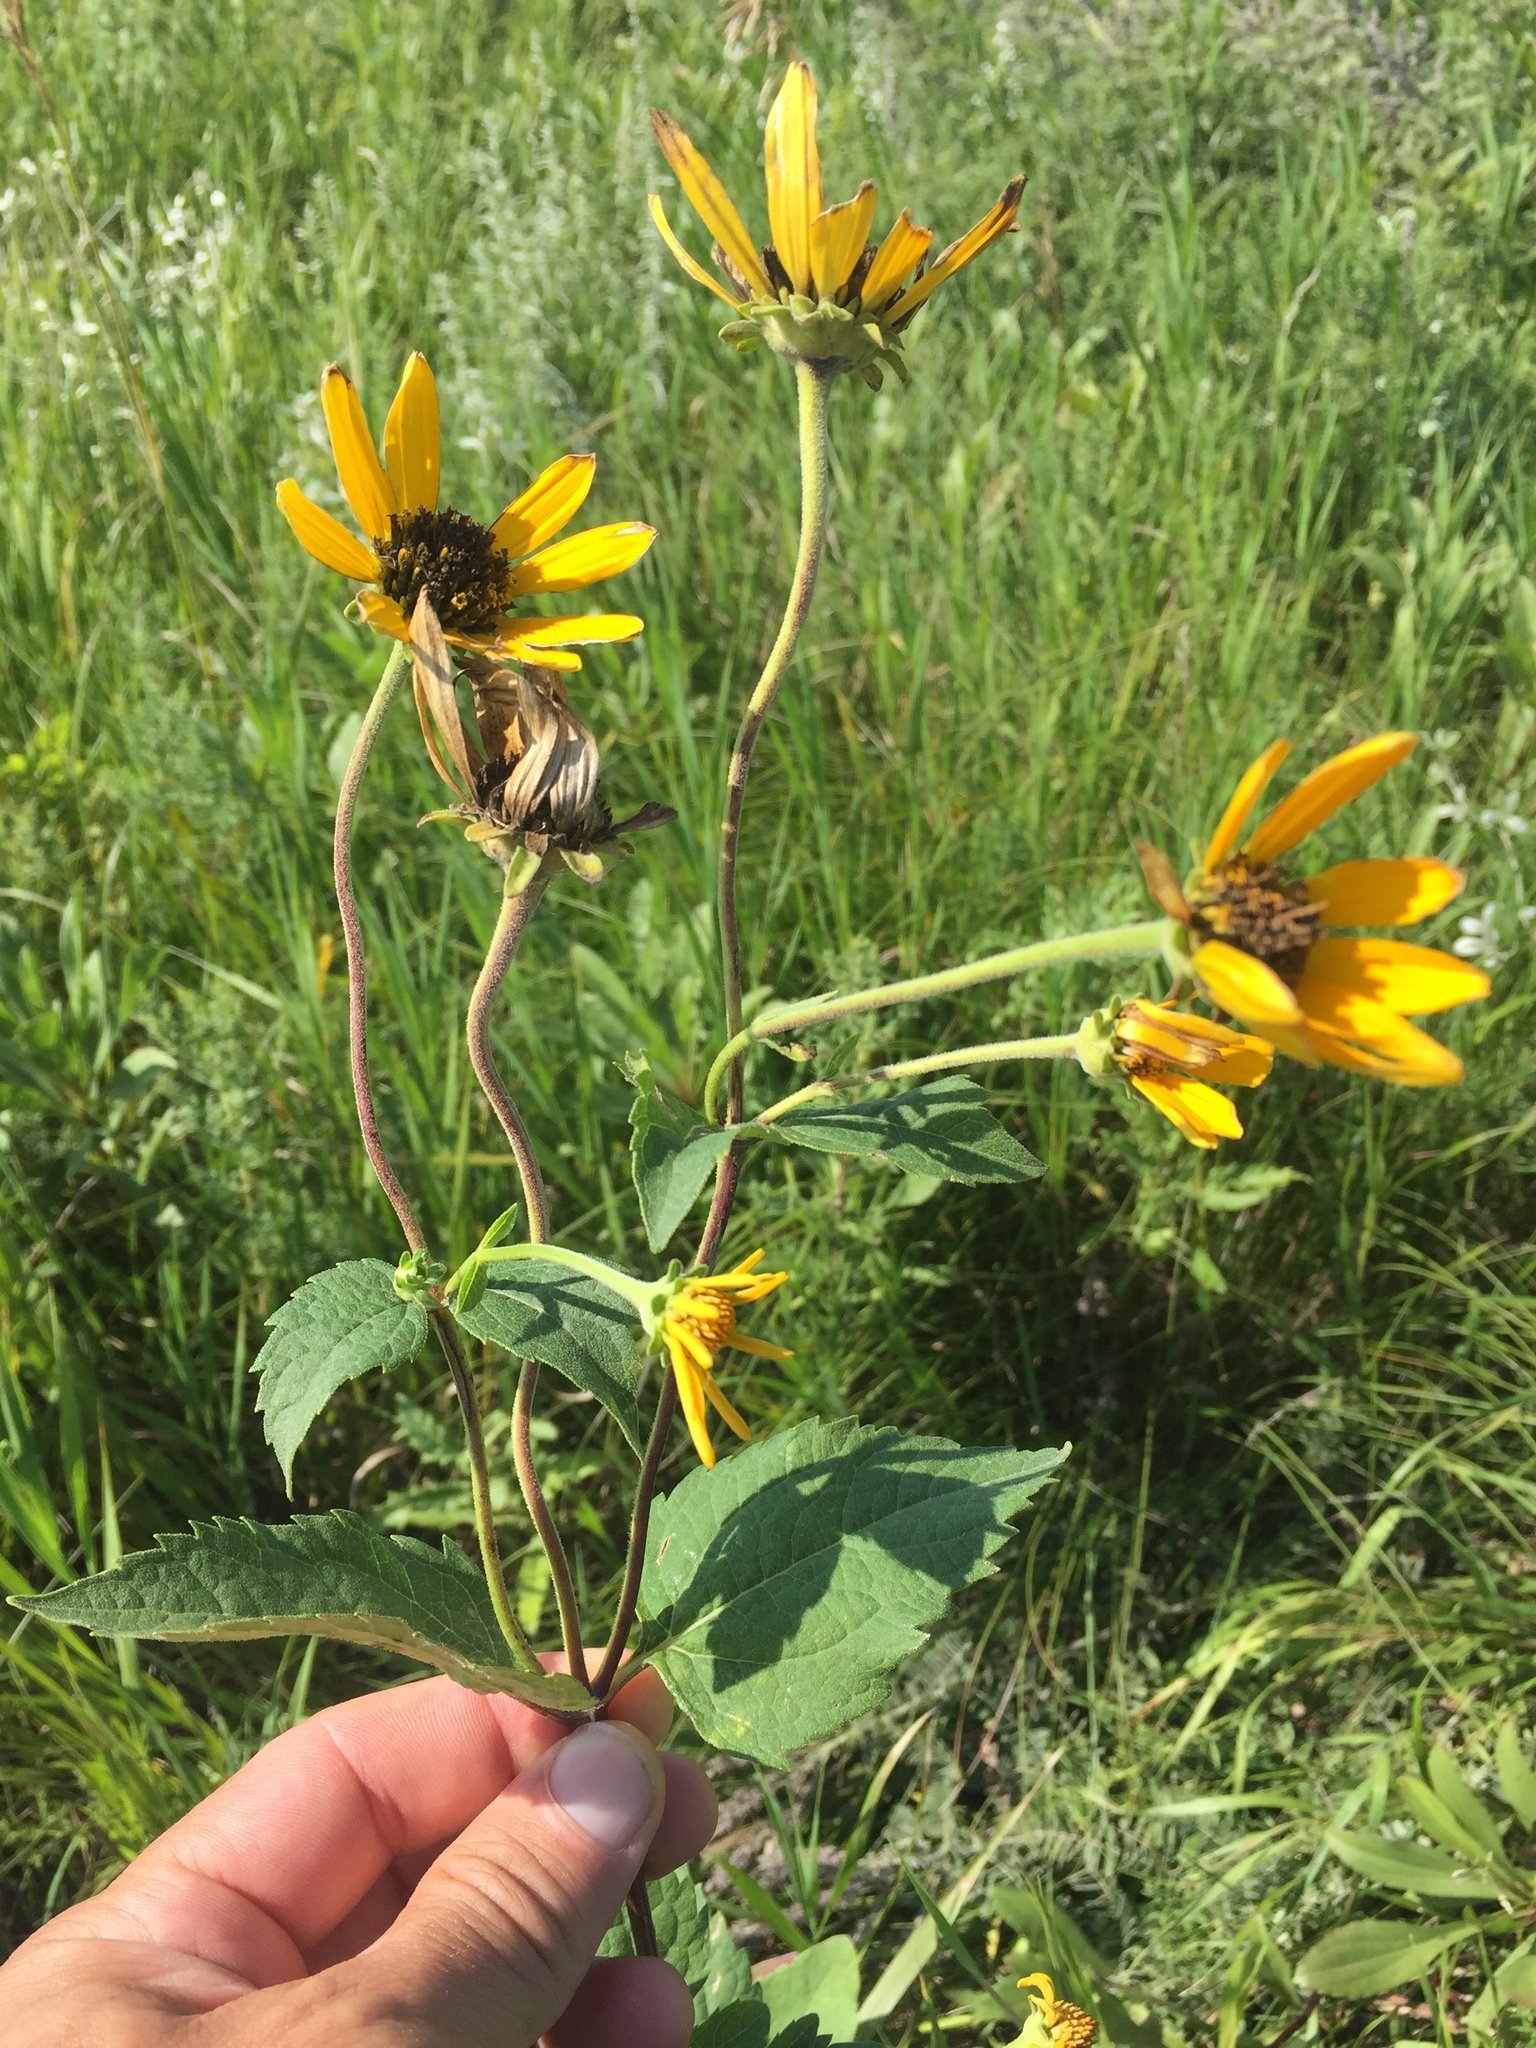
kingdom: Plantae
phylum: Tracheophyta
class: Magnoliopsida
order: Asterales
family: Asteraceae
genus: Heliopsis
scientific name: Heliopsis helianthoides
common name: False sunflower
